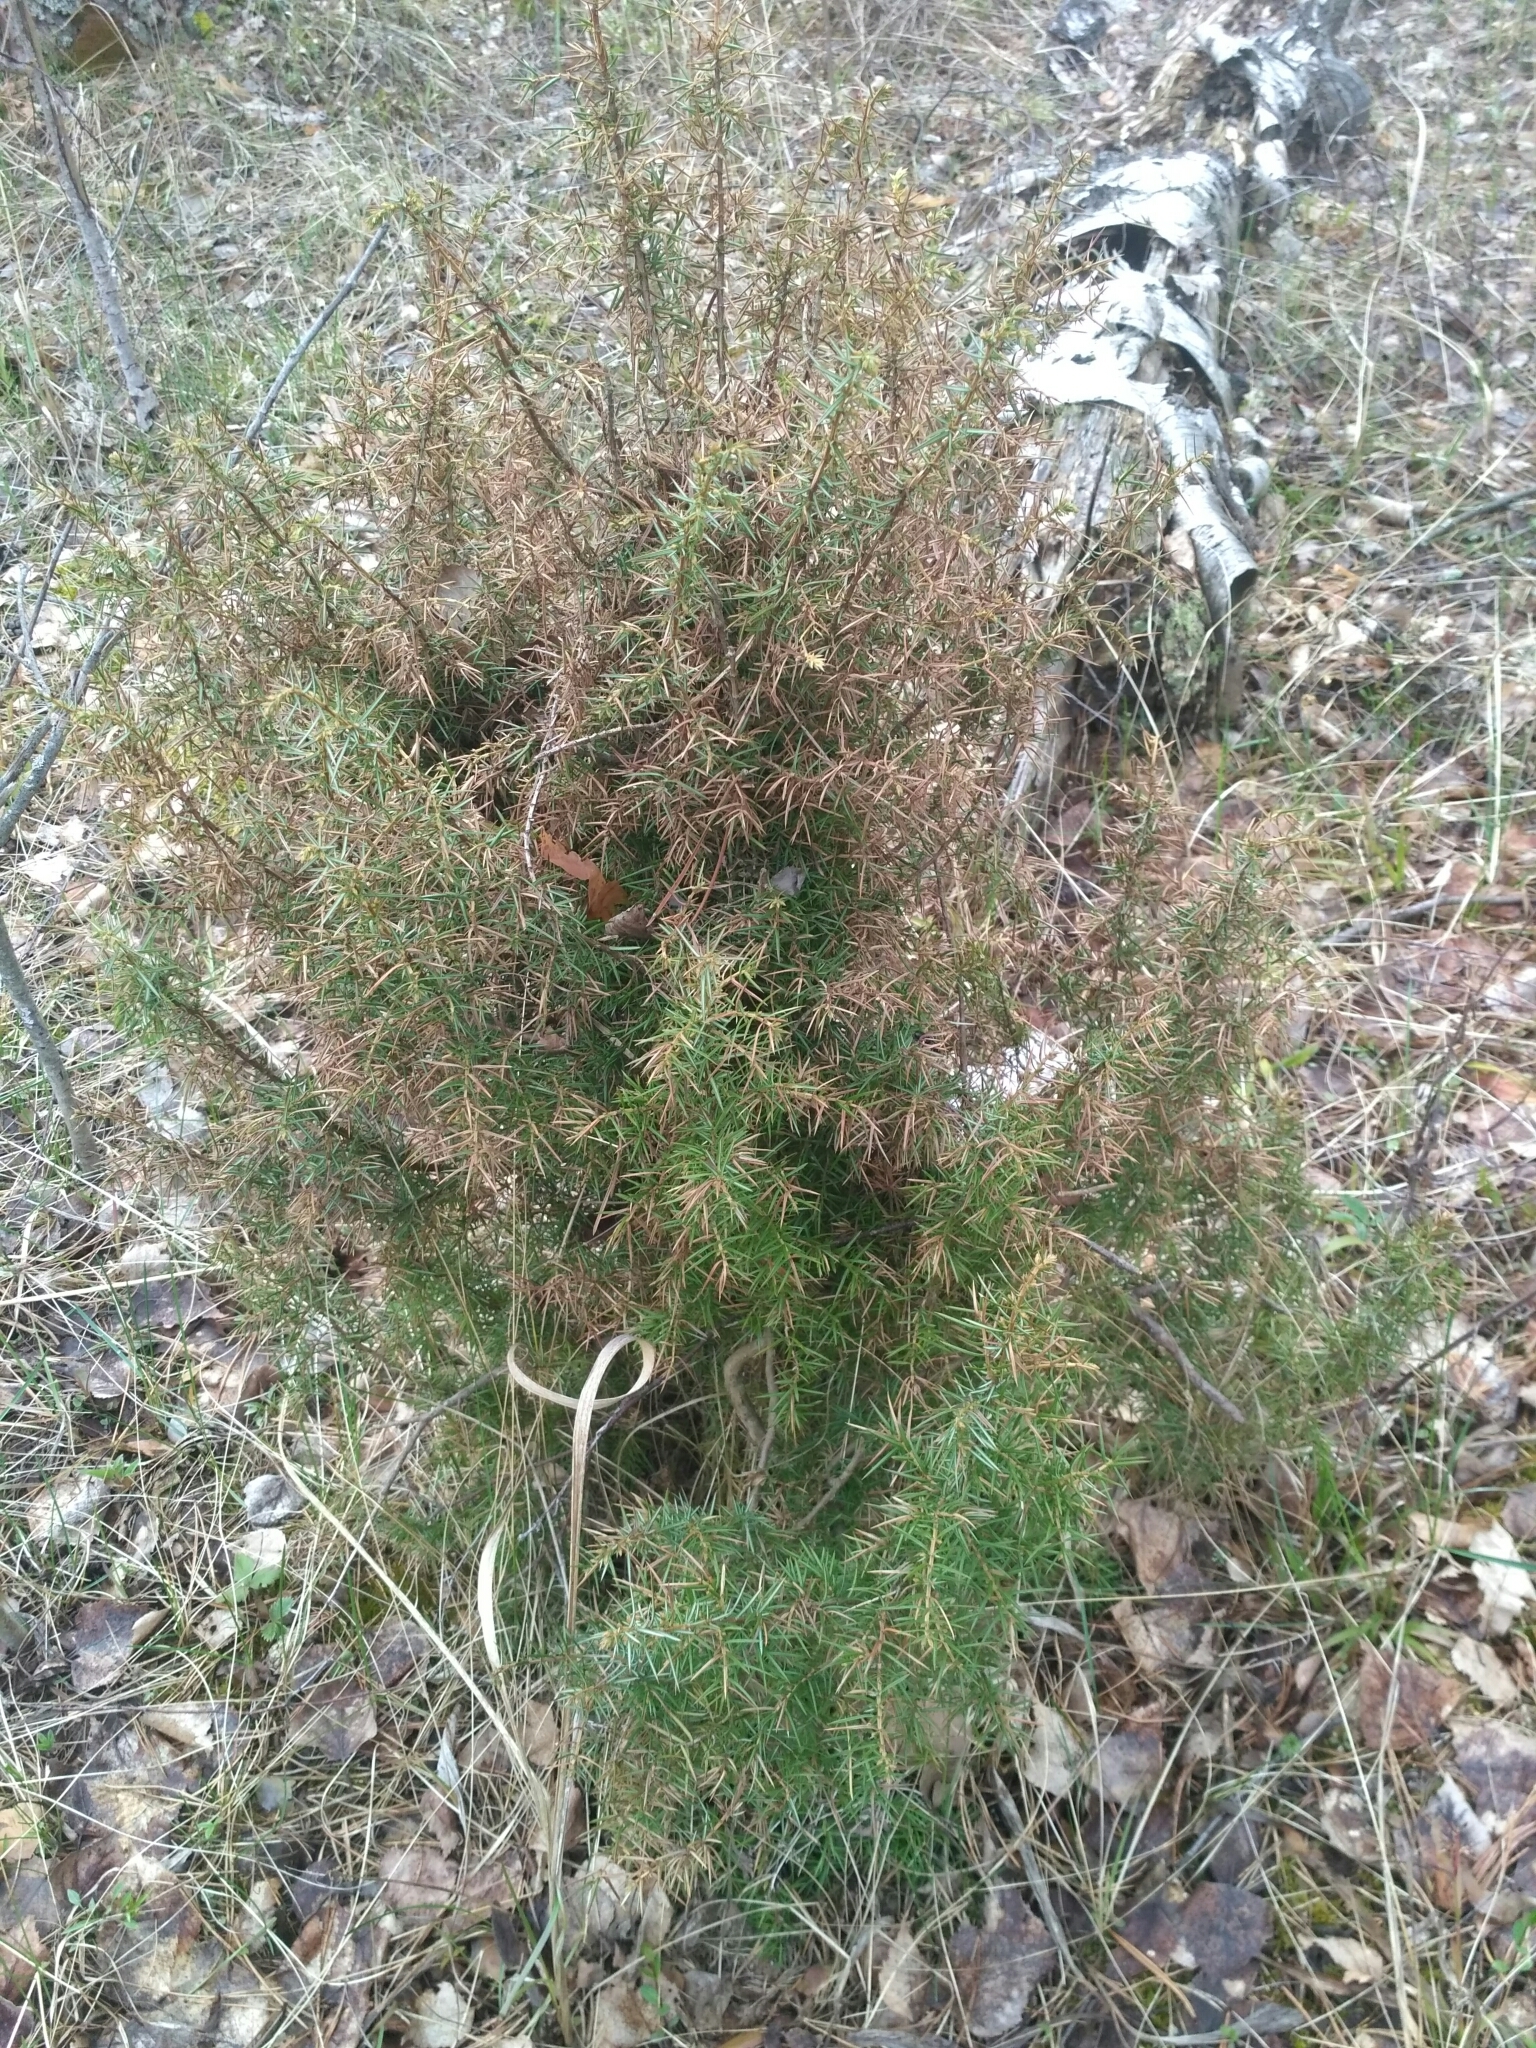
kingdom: Plantae
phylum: Tracheophyta
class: Pinopsida
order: Pinales
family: Cupressaceae
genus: Juniperus
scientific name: Juniperus communis
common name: Common juniper
